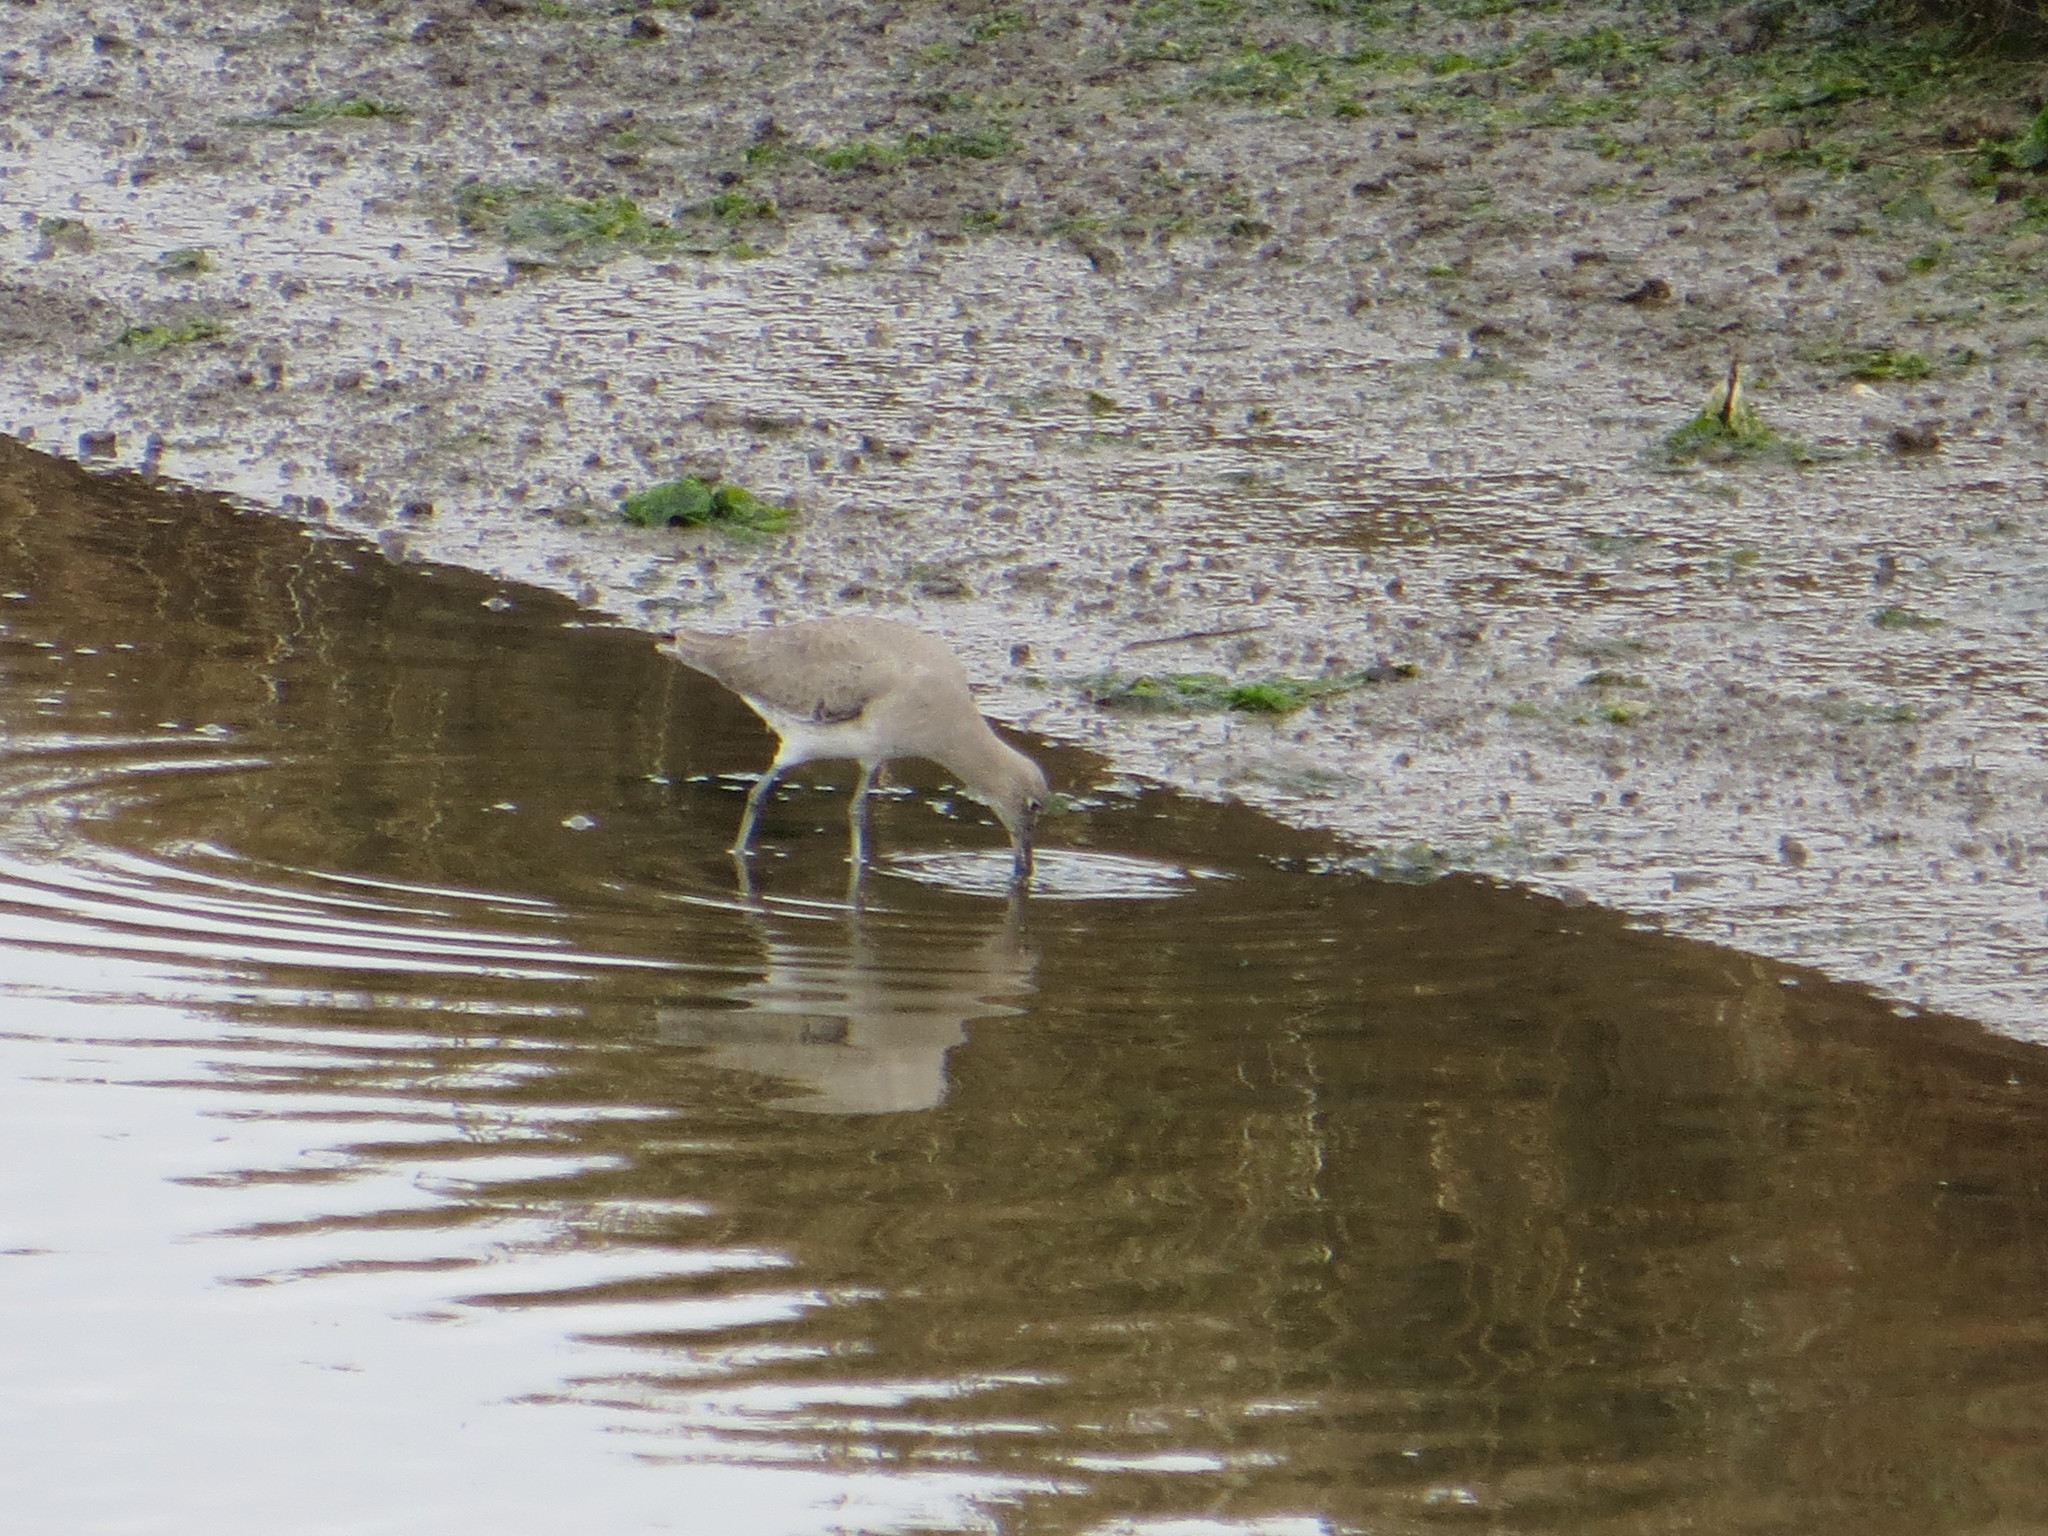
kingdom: Animalia
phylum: Chordata
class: Aves
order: Charadriiformes
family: Scolopacidae
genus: Tringa
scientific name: Tringa semipalmata
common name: Willet
